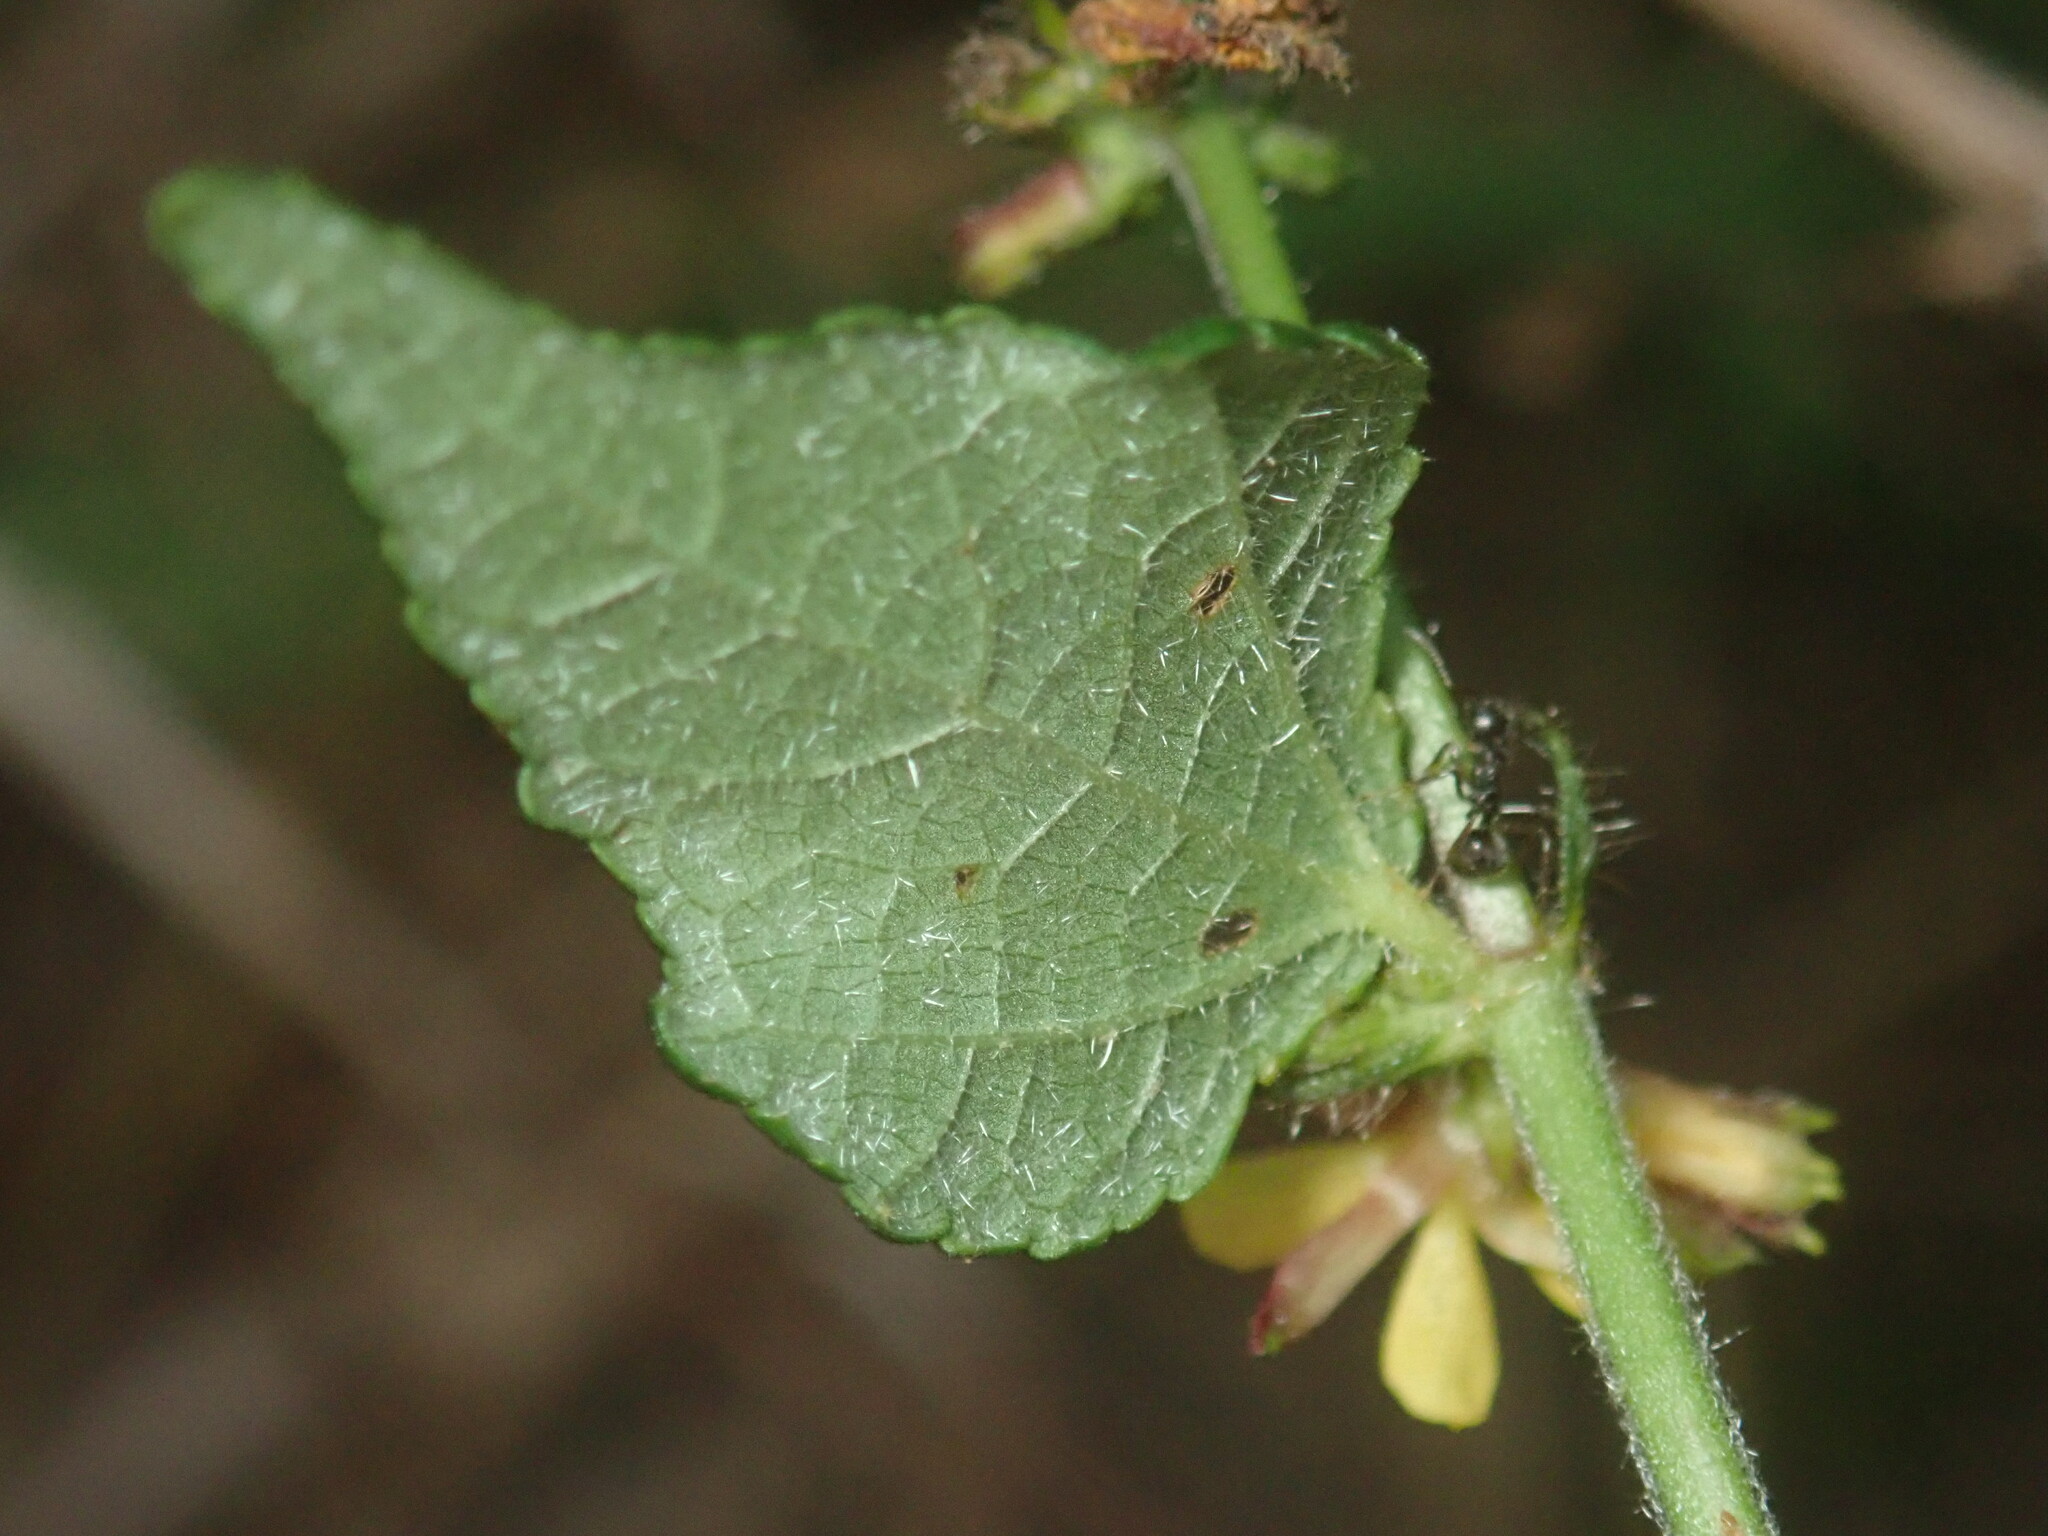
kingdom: Plantae
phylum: Tracheophyta
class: Magnoliopsida
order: Malvales
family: Malvaceae
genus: Triumfetta
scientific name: Triumfetta rhomboidea
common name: Diamond burbark
